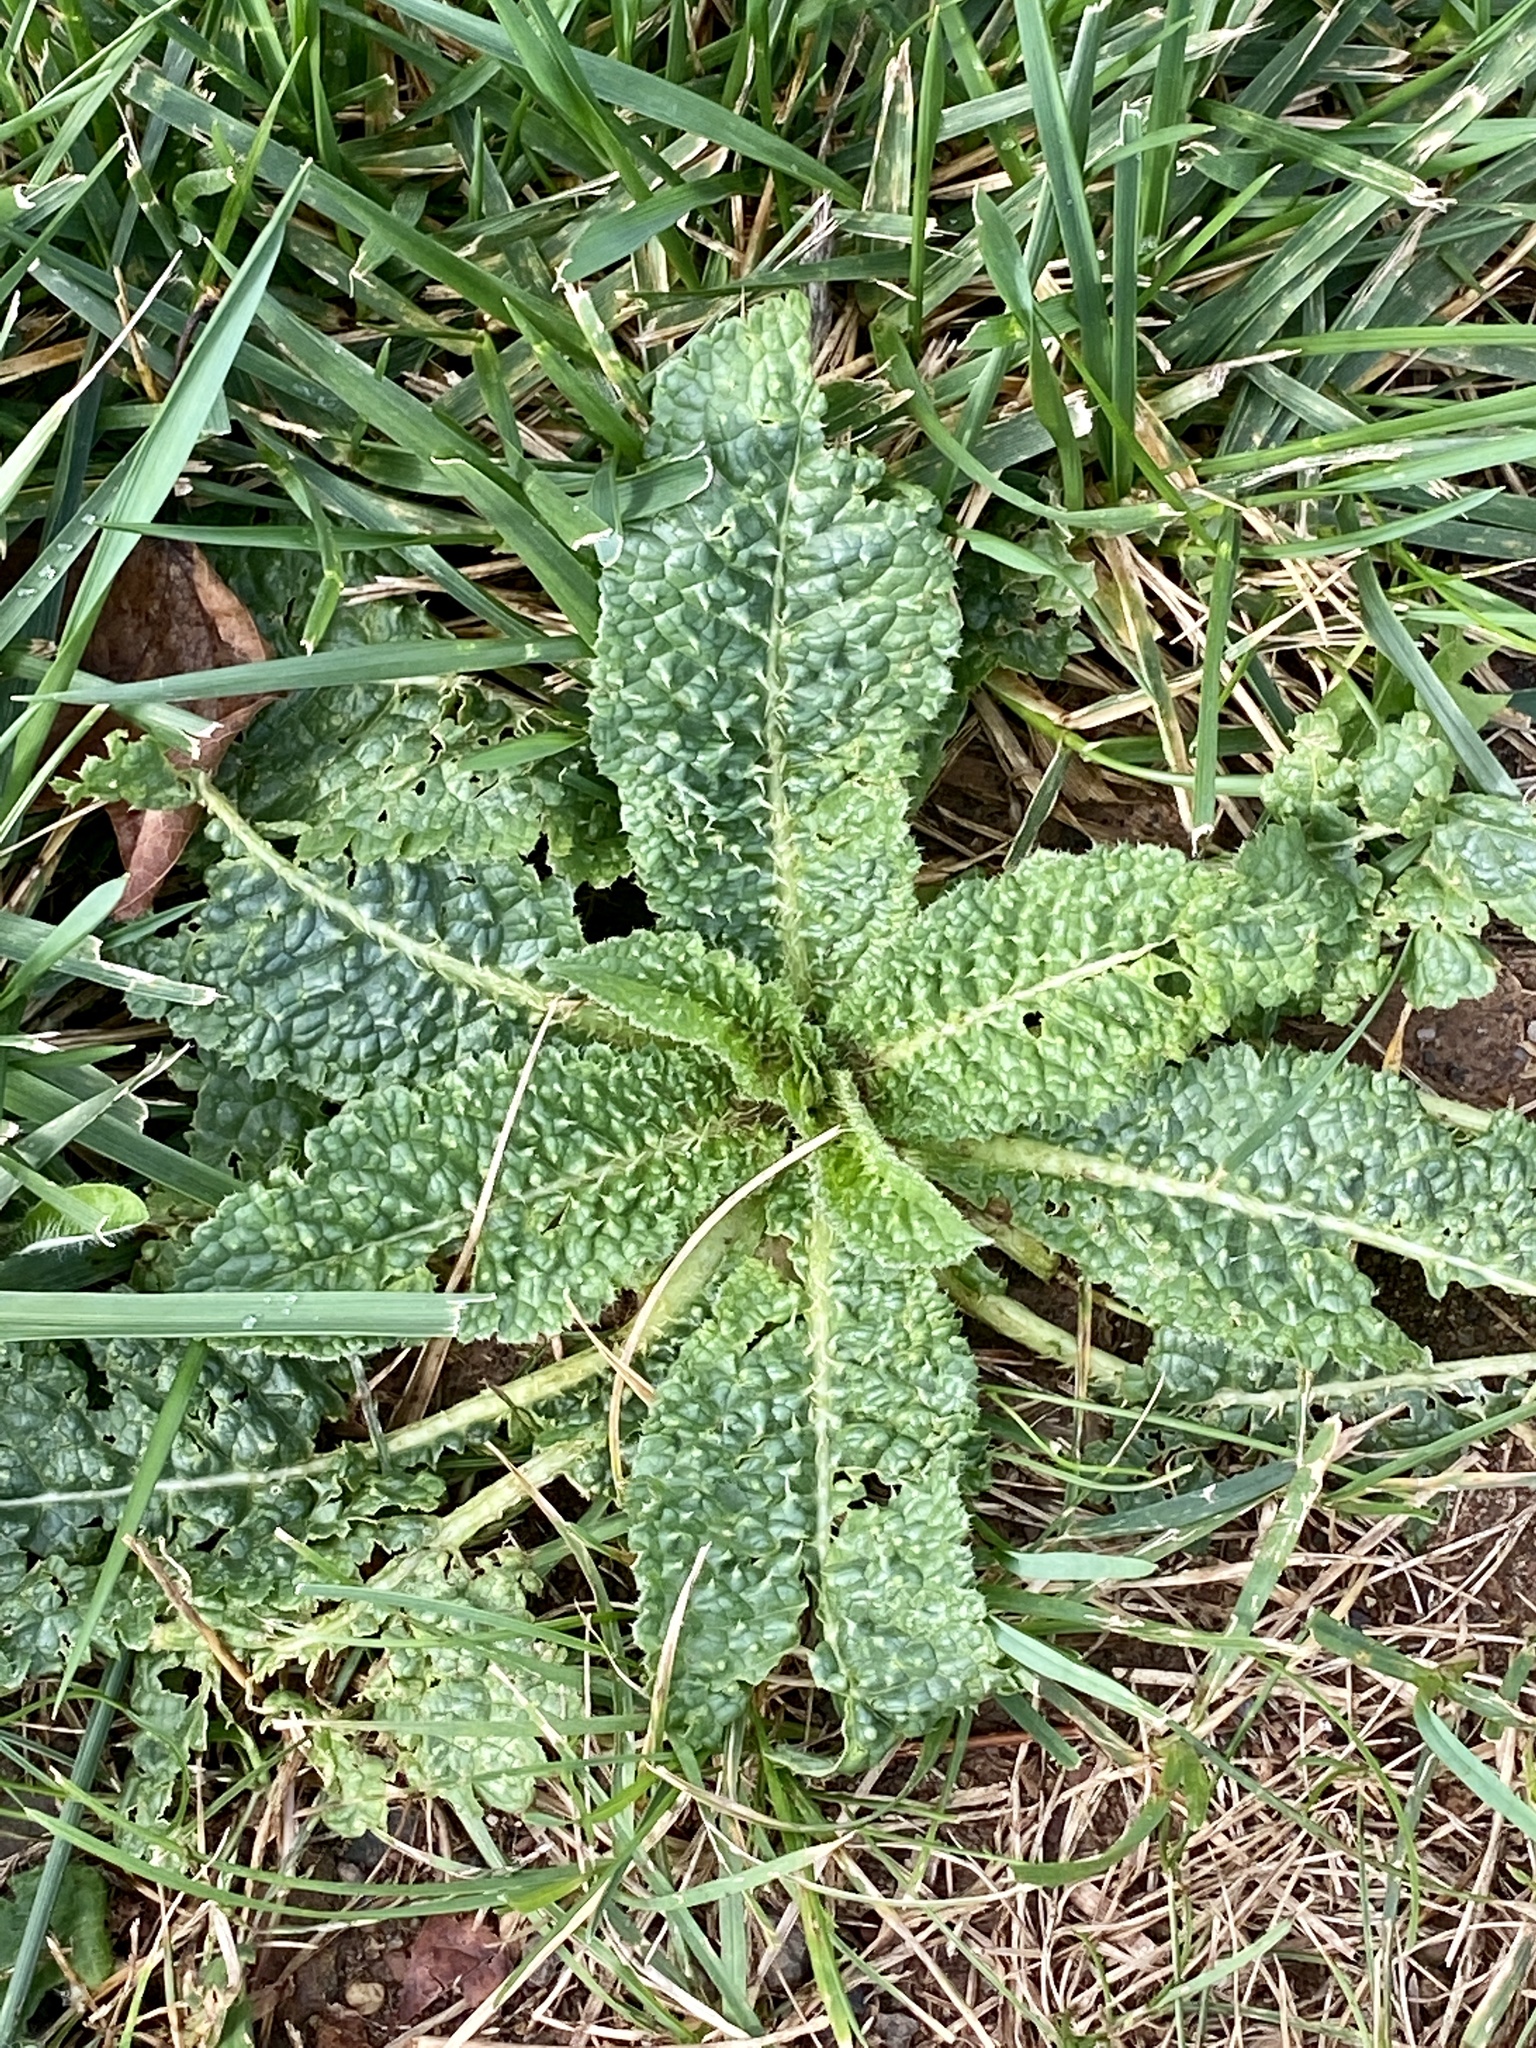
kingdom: Plantae
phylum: Tracheophyta
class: Magnoliopsida
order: Dipsacales
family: Caprifoliaceae
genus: Dipsacus
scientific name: Dipsacus fullonum
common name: Teasel
